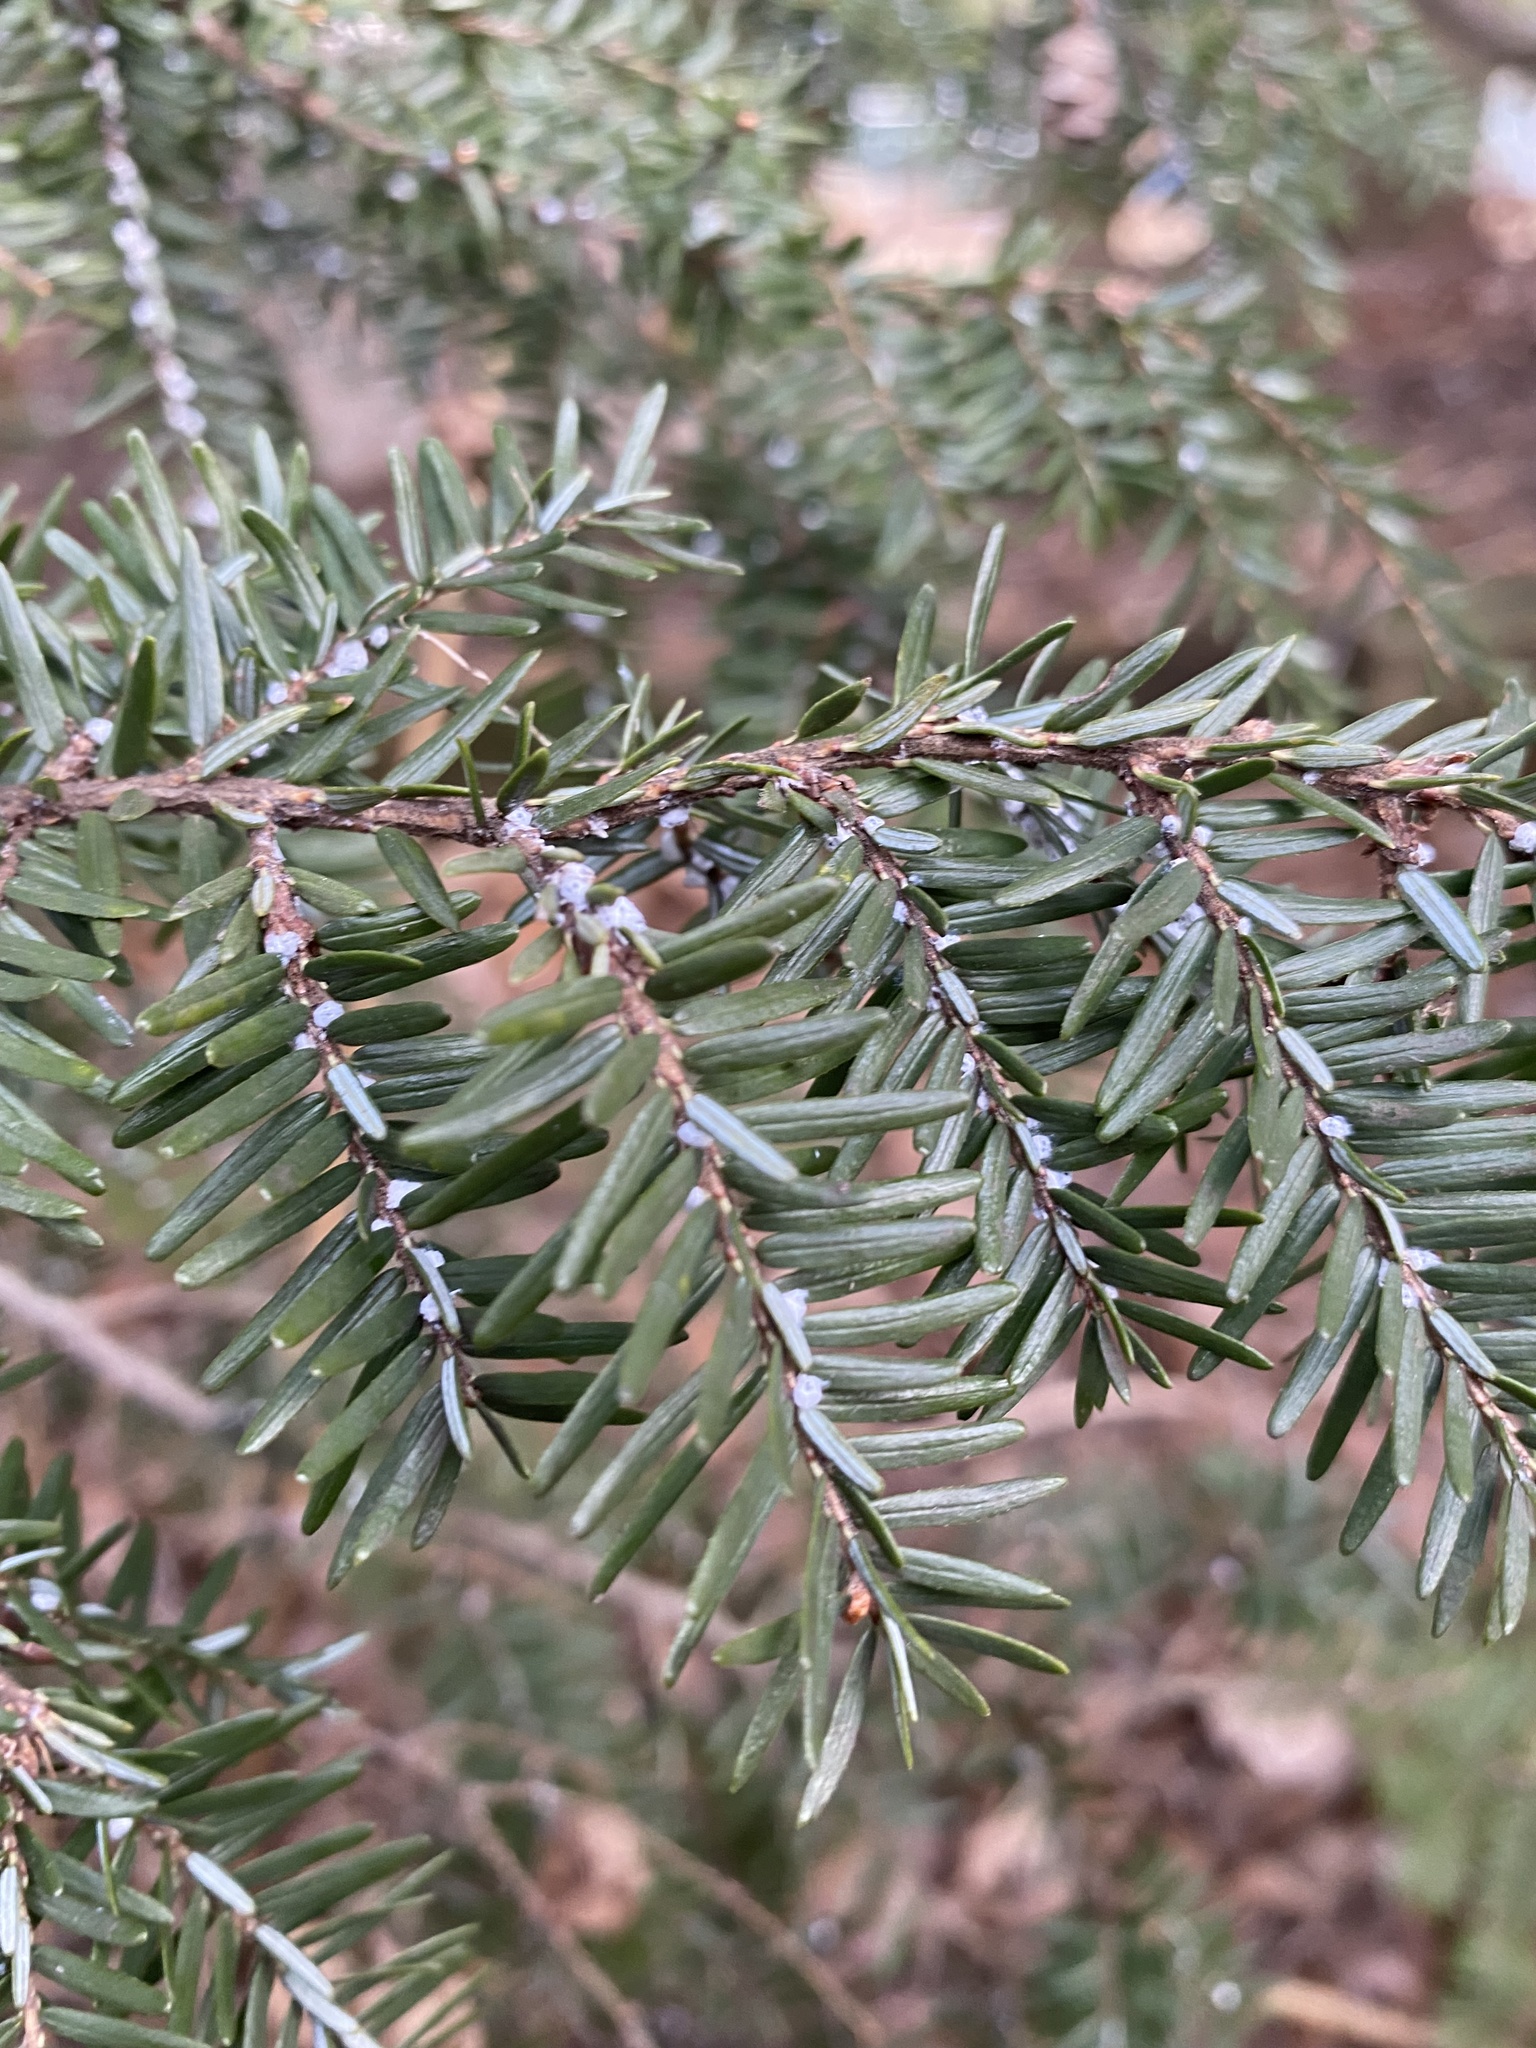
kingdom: Animalia
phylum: Arthropoda
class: Insecta
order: Hemiptera
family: Adelgidae
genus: Adelges
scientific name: Adelges tsugae
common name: Hemlock woolly adelgid
